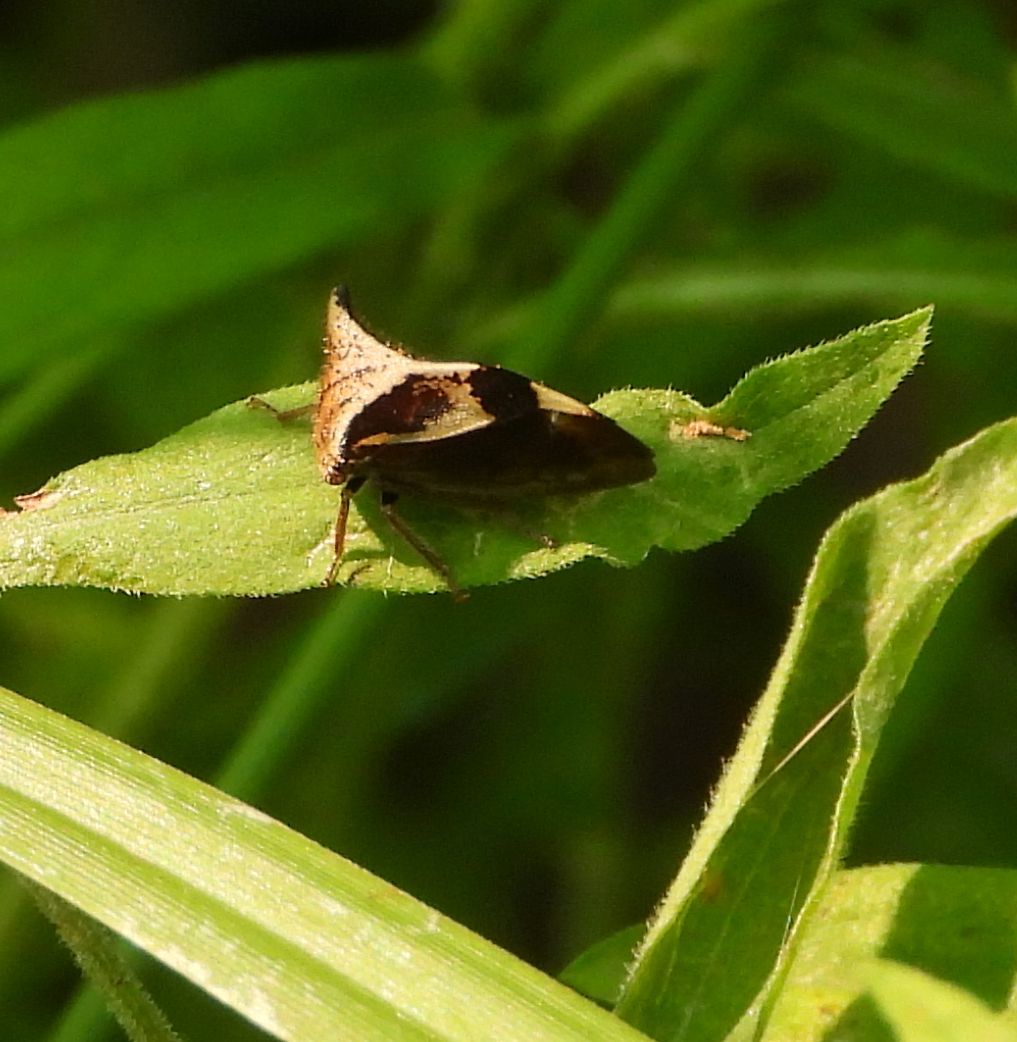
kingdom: Animalia
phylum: Arthropoda
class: Insecta
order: Hemiptera
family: Membracidae
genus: Stictocephala
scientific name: Stictocephala diceros
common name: Two-horned treehopper
